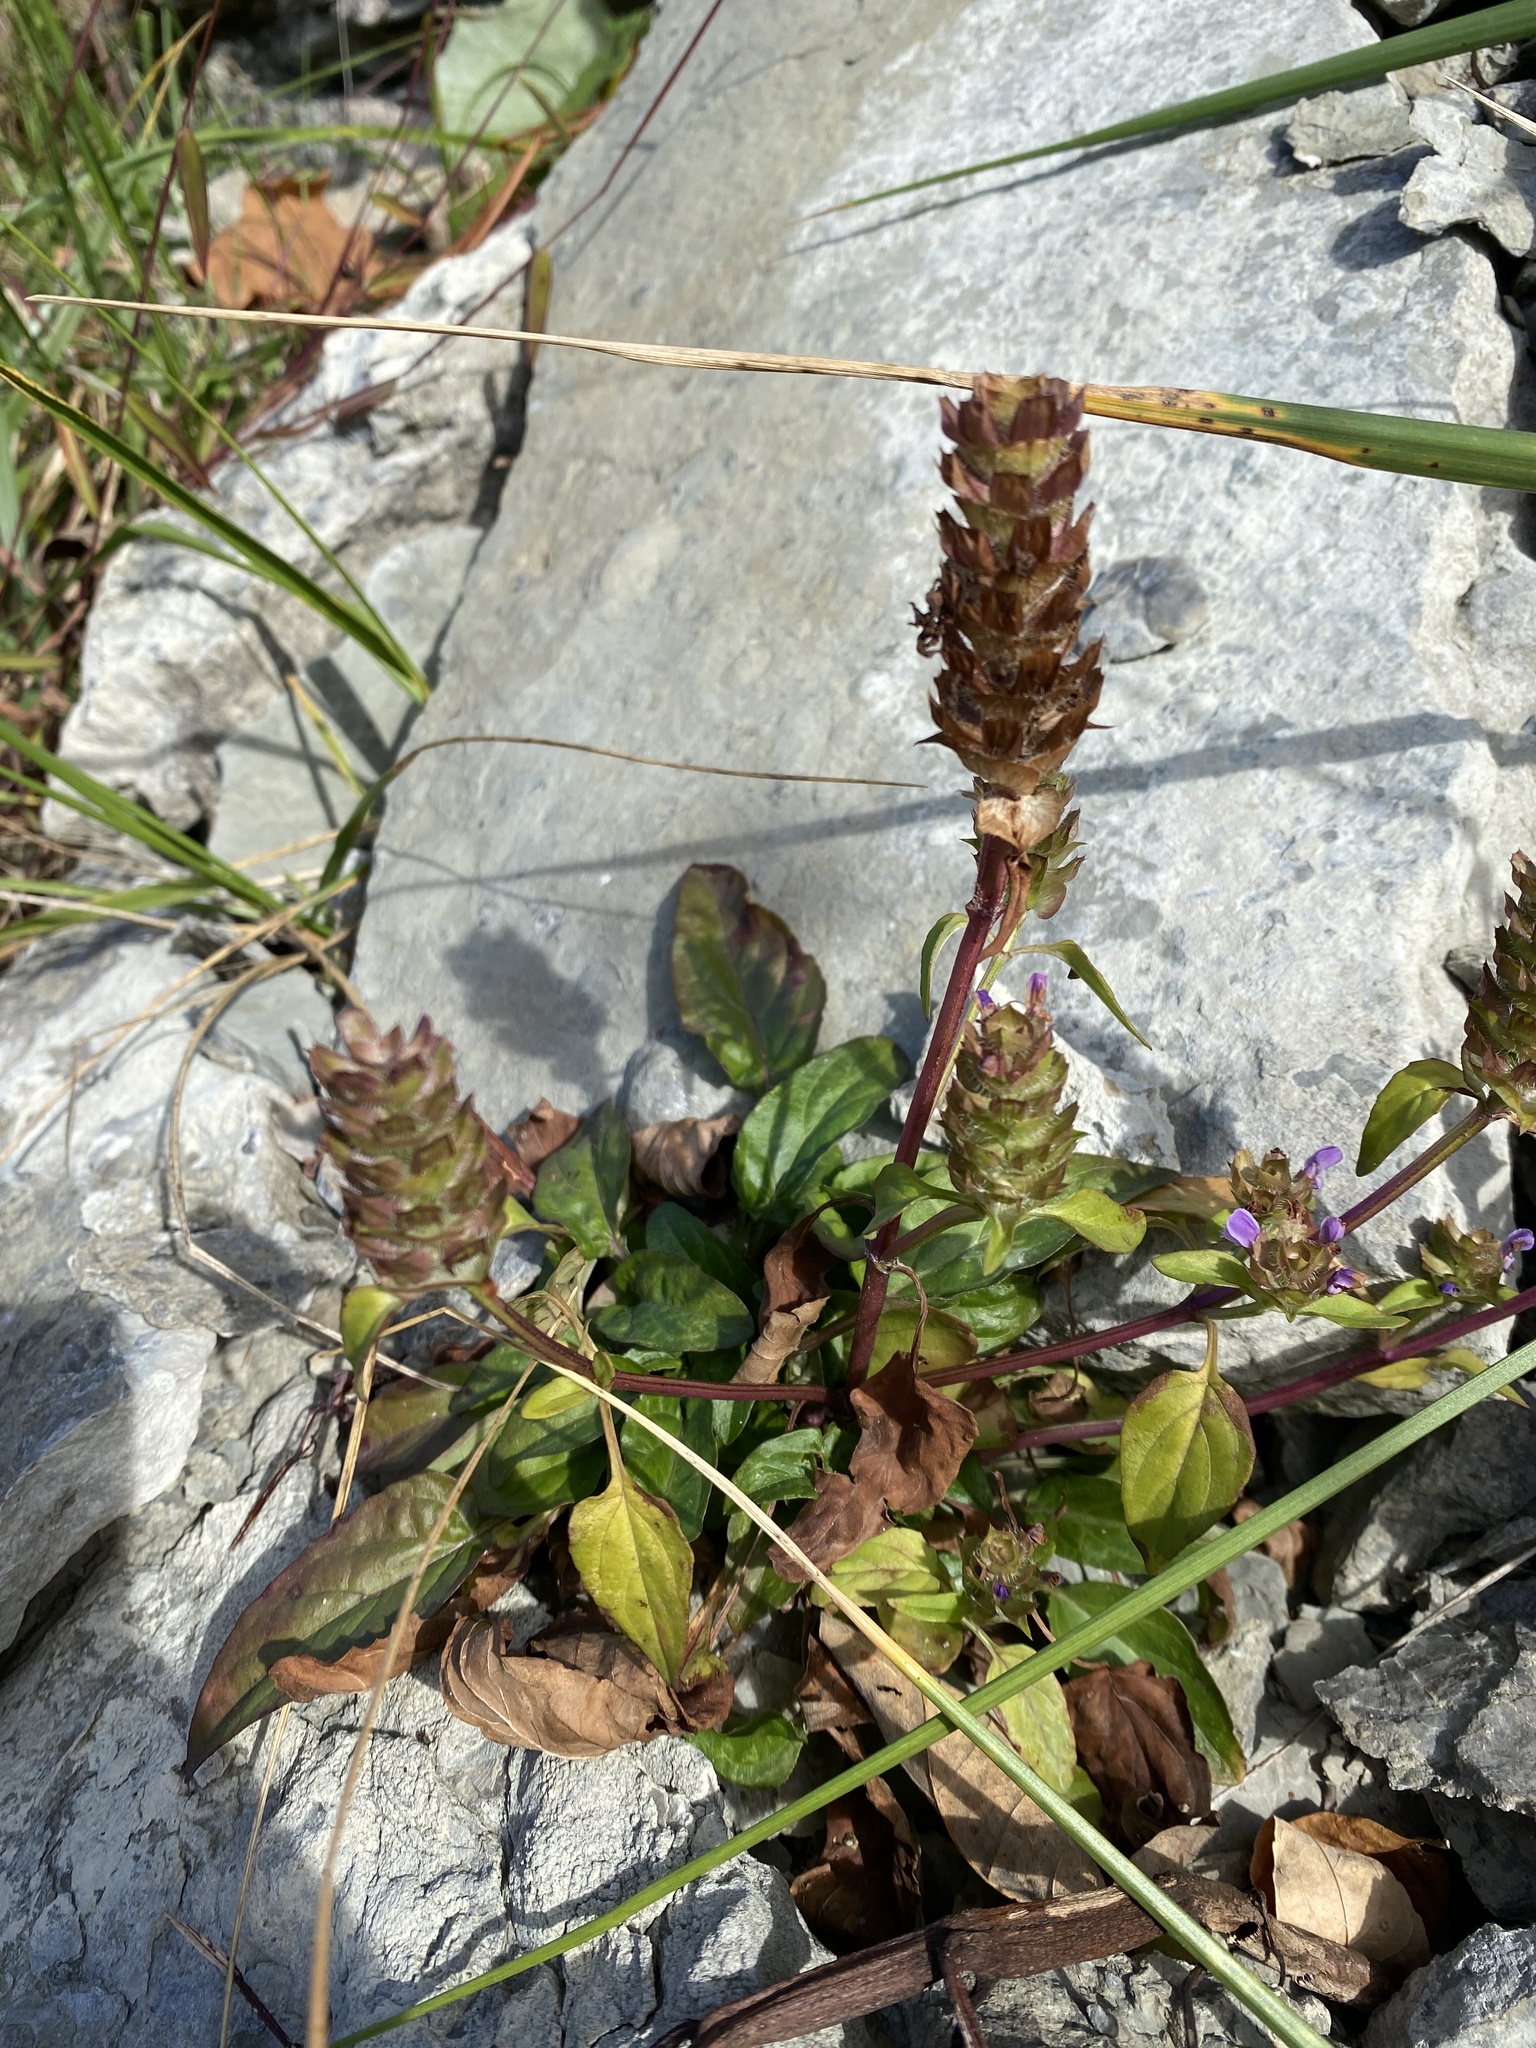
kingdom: Plantae
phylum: Tracheophyta
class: Magnoliopsida
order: Lamiales
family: Lamiaceae
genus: Prunella
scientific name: Prunella vulgaris
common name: Heal-all
